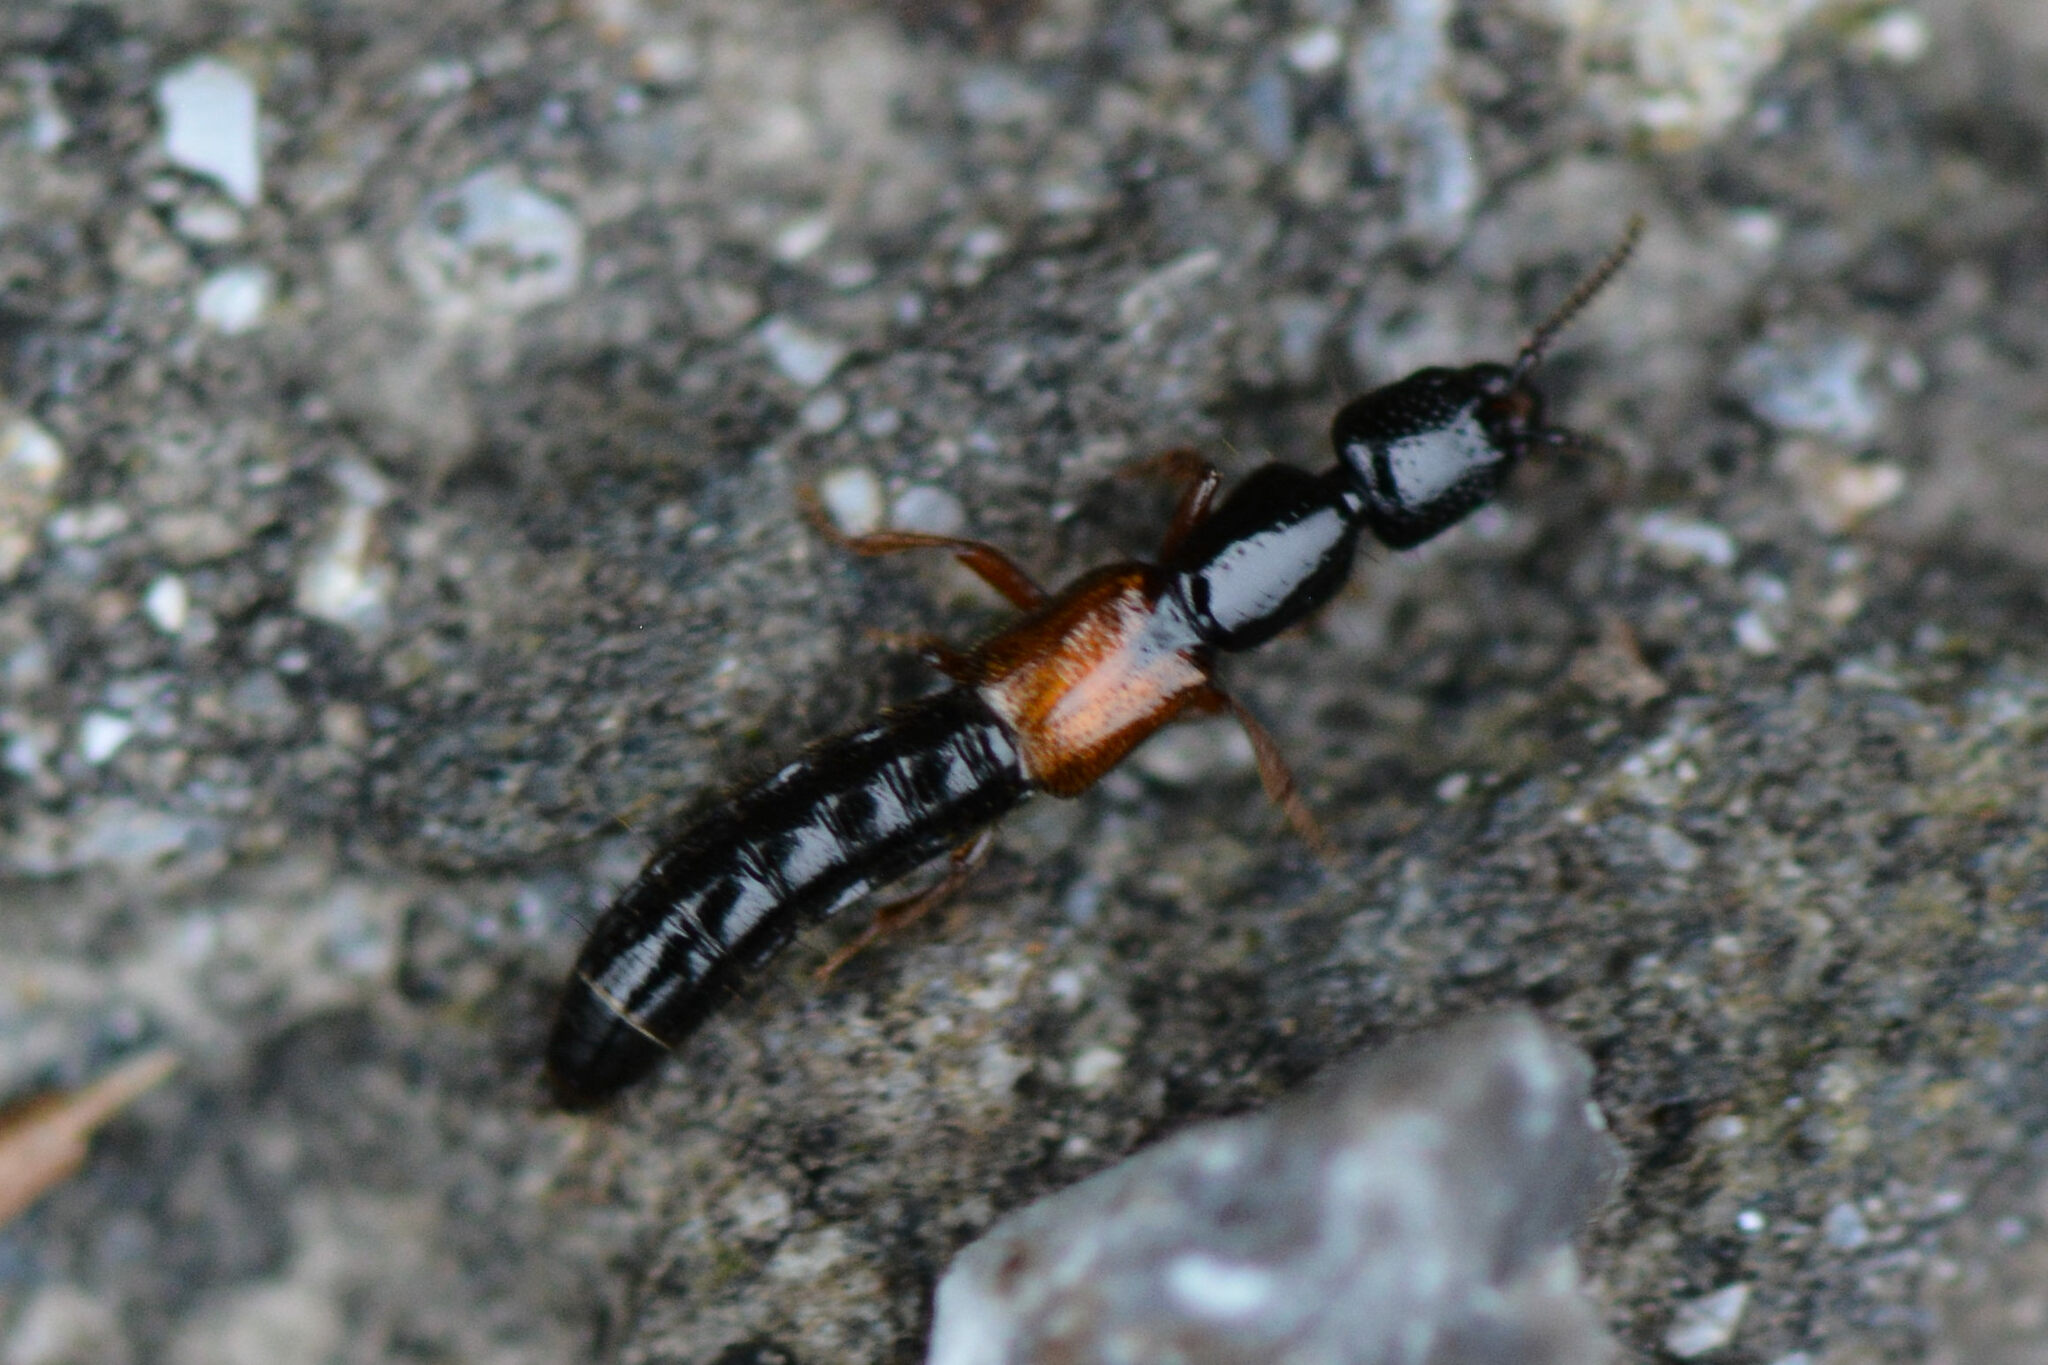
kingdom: Animalia
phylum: Arthropoda
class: Insecta
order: Coleoptera
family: Staphylinidae
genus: Nudobius
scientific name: Nudobius lentus
